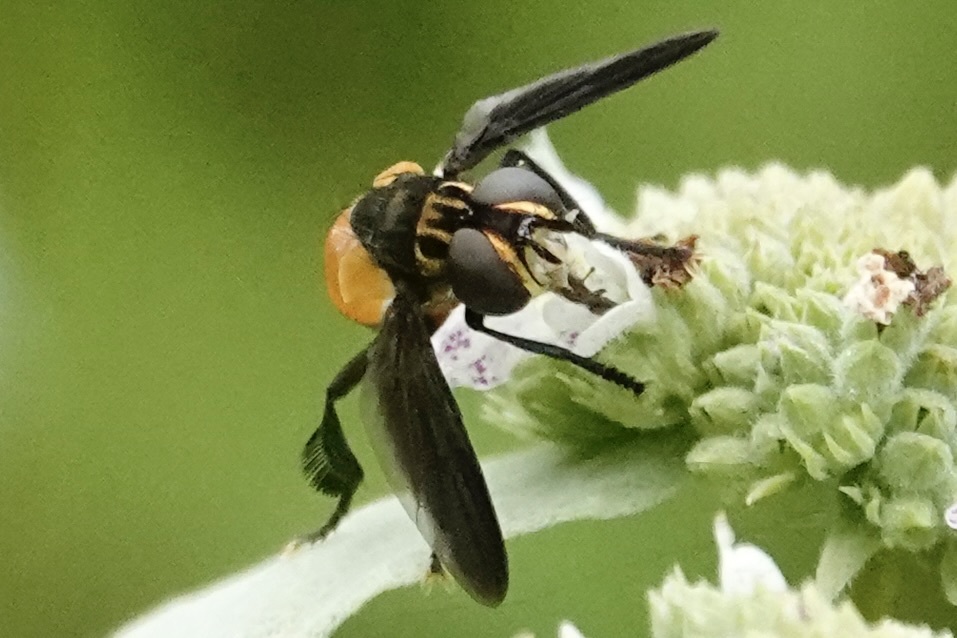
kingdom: Animalia
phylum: Arthropoda
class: Insecta
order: Diptera
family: Tachinidae
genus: Trichopoda
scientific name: Trichopoda pennipes
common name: Tachinid fly
